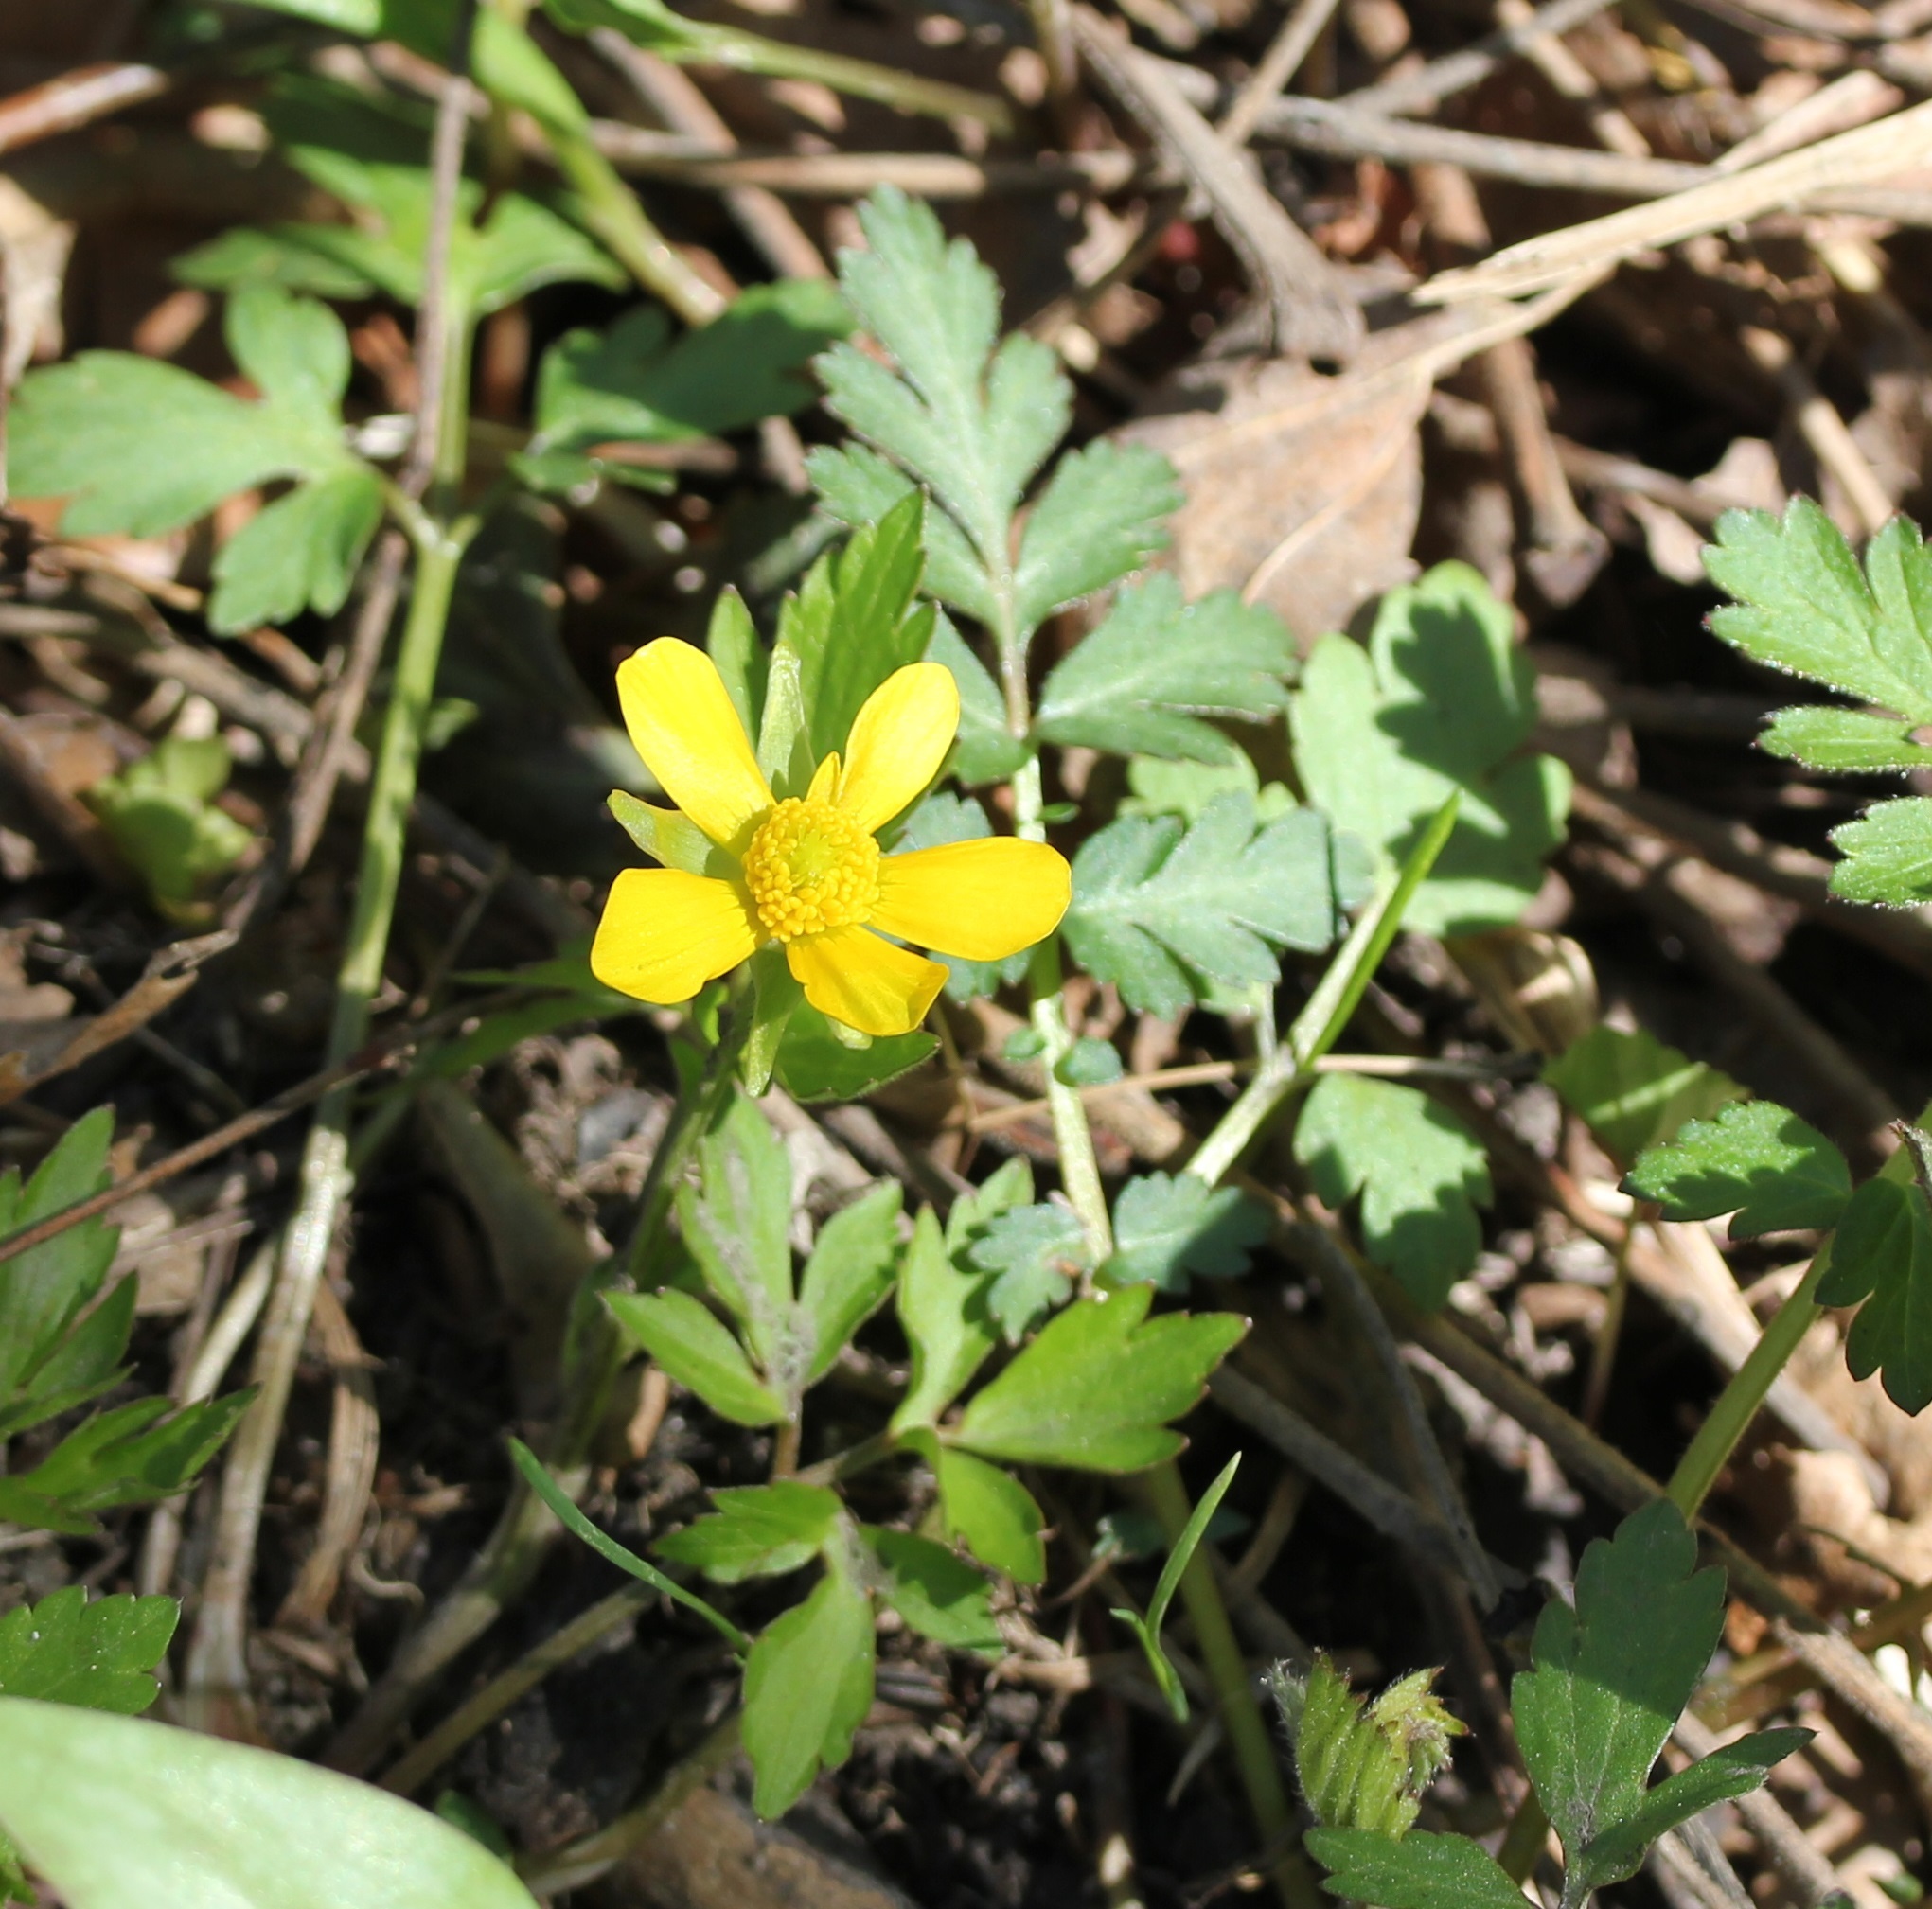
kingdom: Plantae
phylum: Tracheophyta
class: Magnoliopsida
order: Ranunculales
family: Ranunculaceae
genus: Ranunculus
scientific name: Ranunculus hispidus
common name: Bristly buttercup
